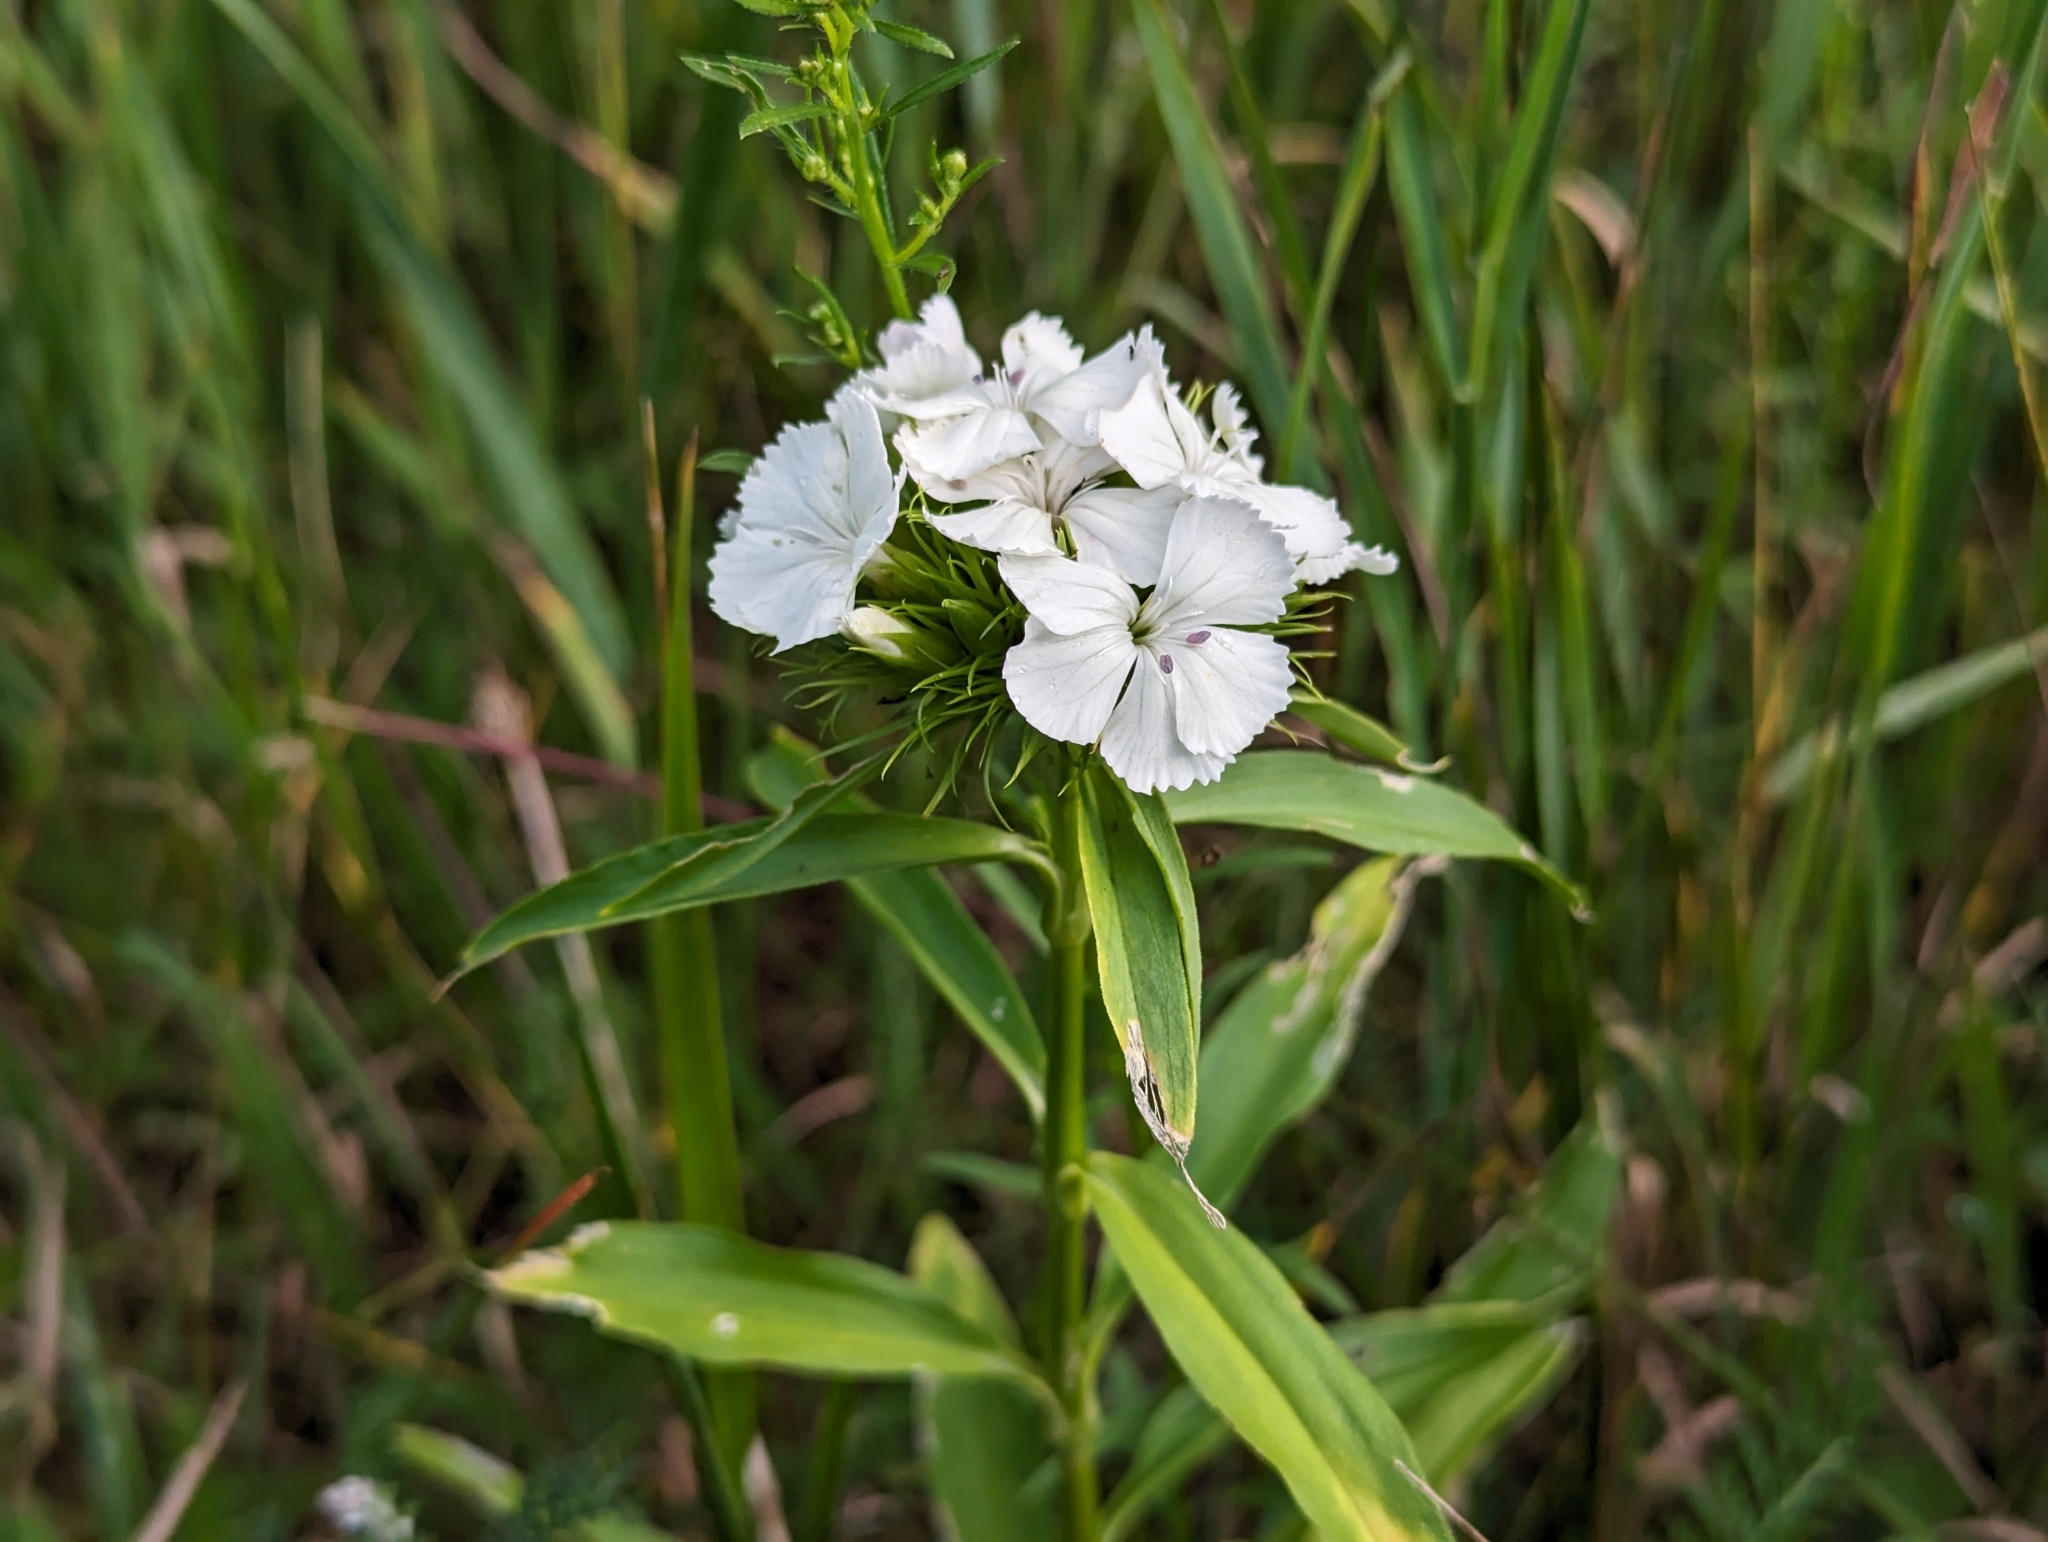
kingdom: Plantae
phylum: Tracheophyta
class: Magnoliopsida
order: Caryophyllales
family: Caryophyllaceae
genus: Dianthus
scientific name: Dianthus barbatus
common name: Sweet-william
